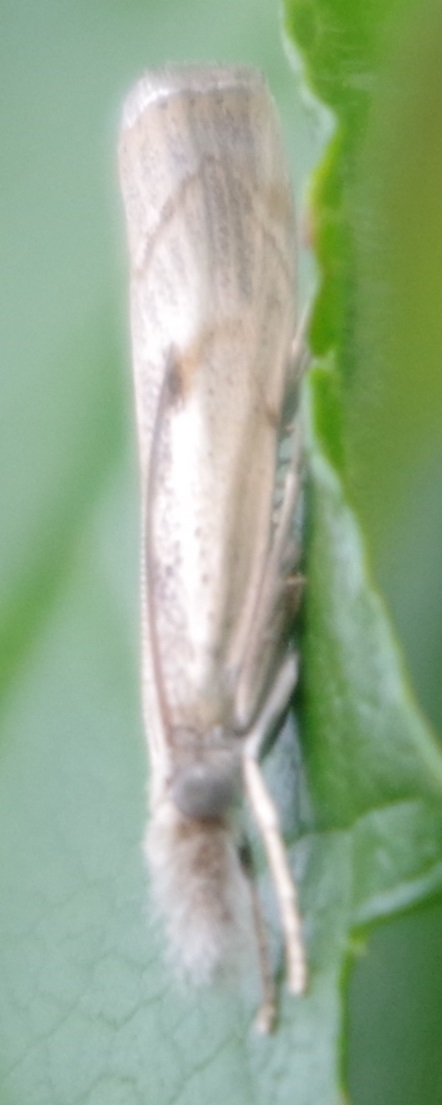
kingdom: Animalia
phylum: Arthropoda
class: Insecta
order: Lepidoptera
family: Crambidae
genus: Agriphila
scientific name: Agriphila geniculea
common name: Elbow-stripe grass-veneer
